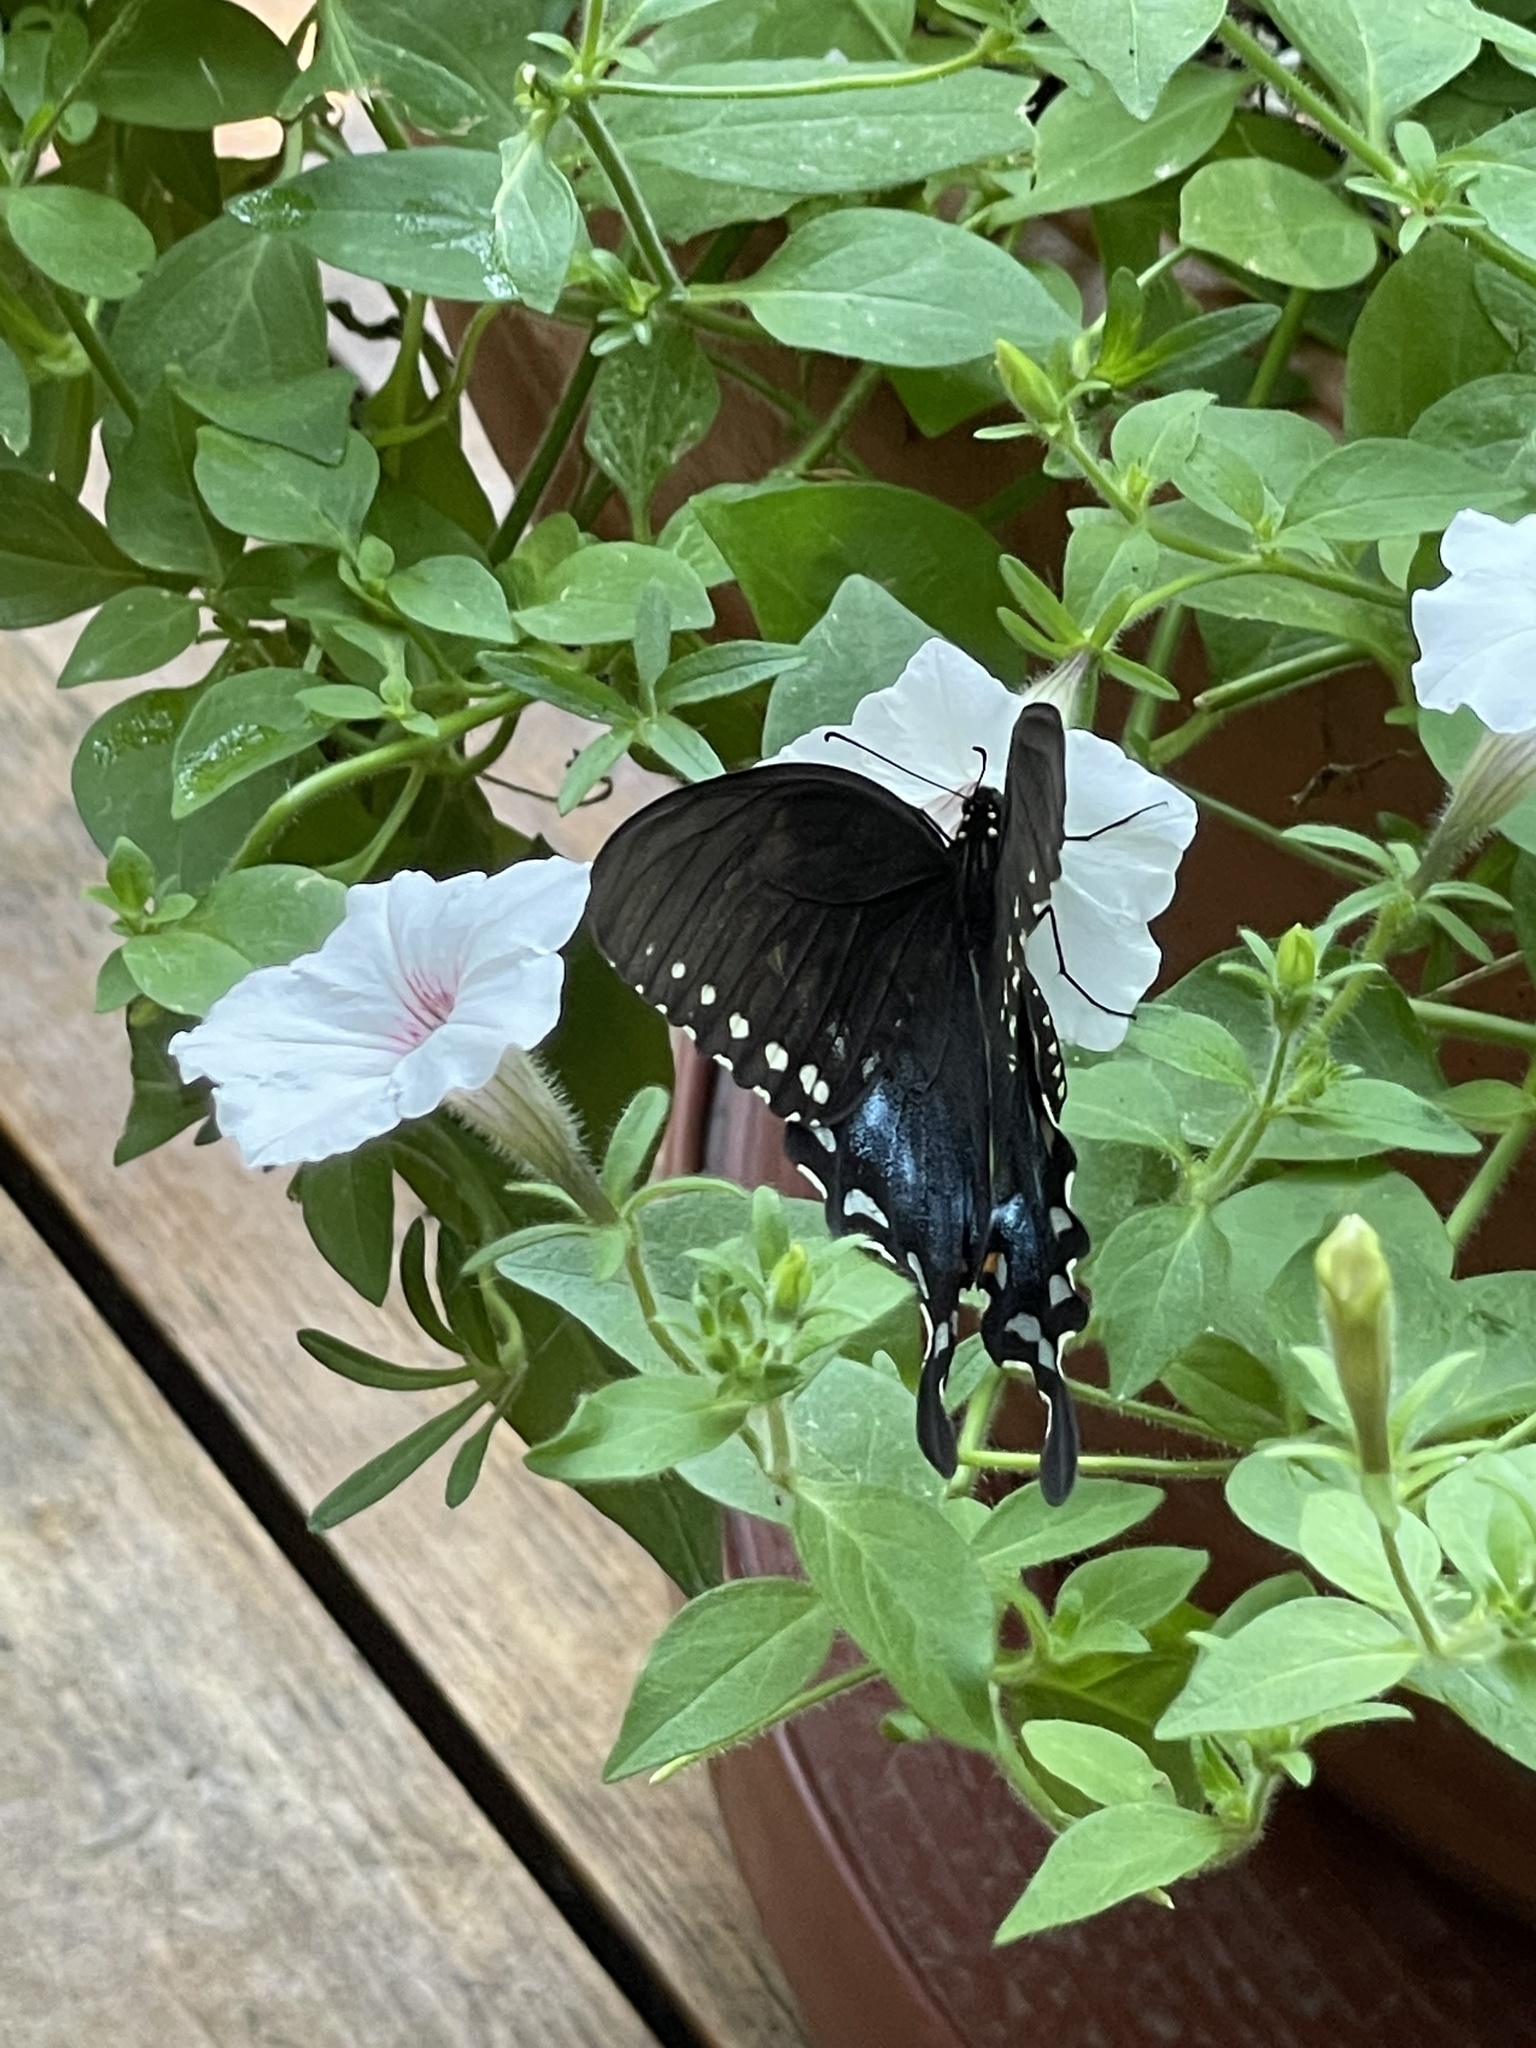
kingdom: Animalia
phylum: Arthropoda
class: Insecta
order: Lepidoptera
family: Papilionidae
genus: Papilio
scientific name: Papilio troilus
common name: Spicebush swallowtail
